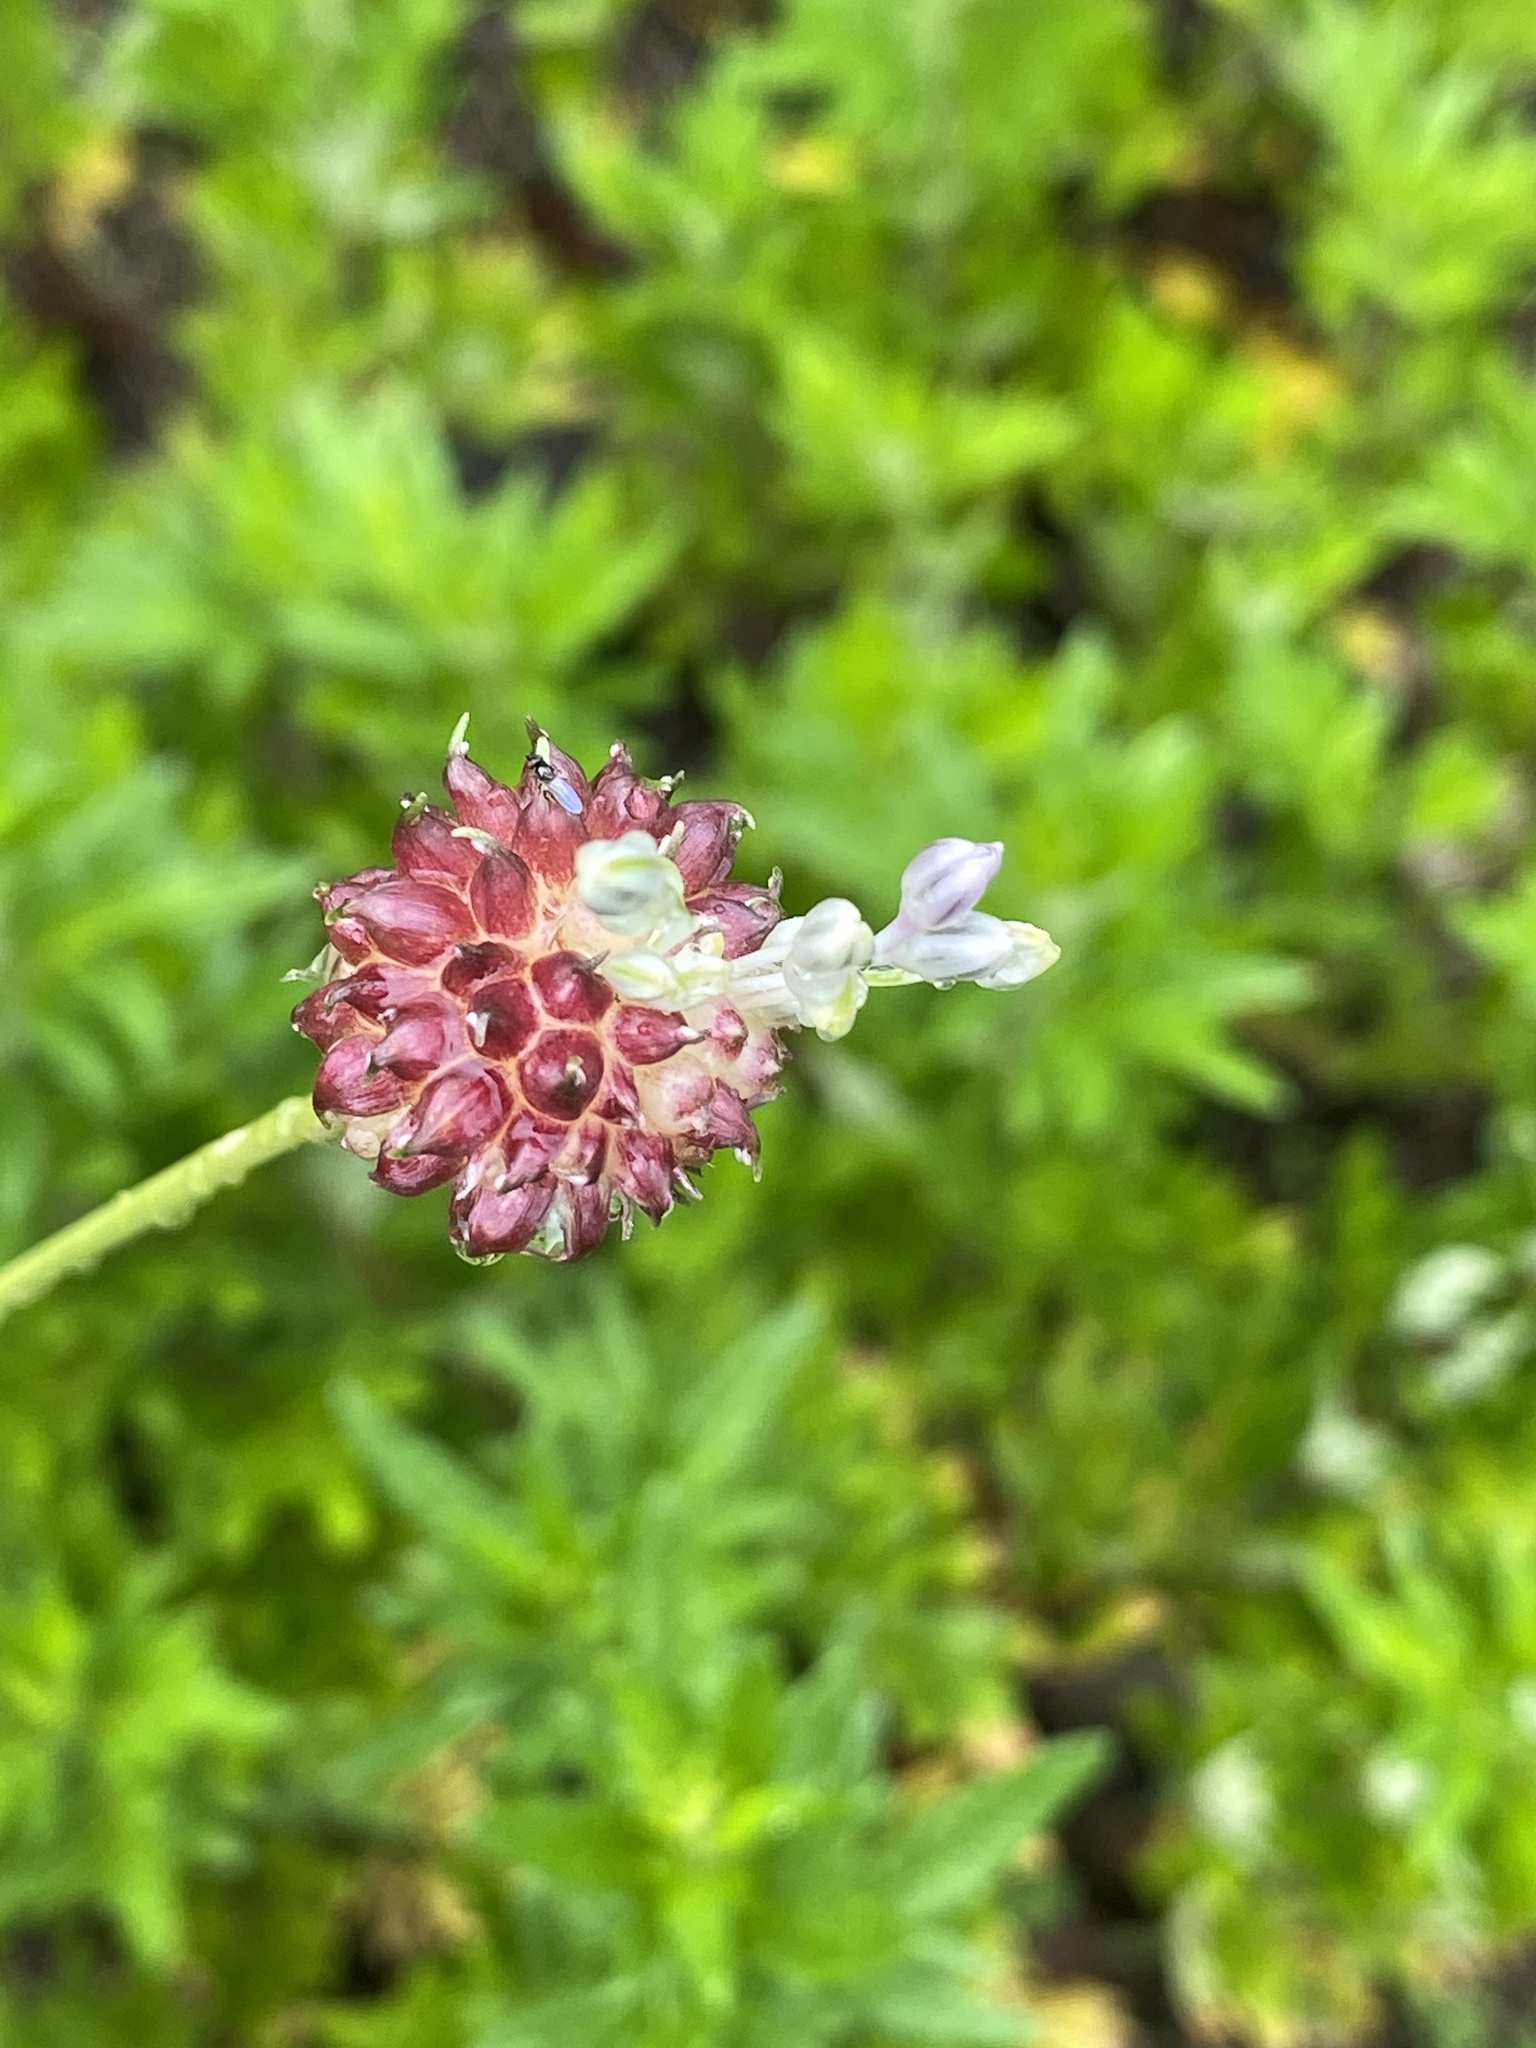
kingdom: Plantae
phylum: Tracheophyta
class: Liliopsida
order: Asparagales
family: Amaryllidaceae
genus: Allium
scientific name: Allium vineale
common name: Crow garlic
